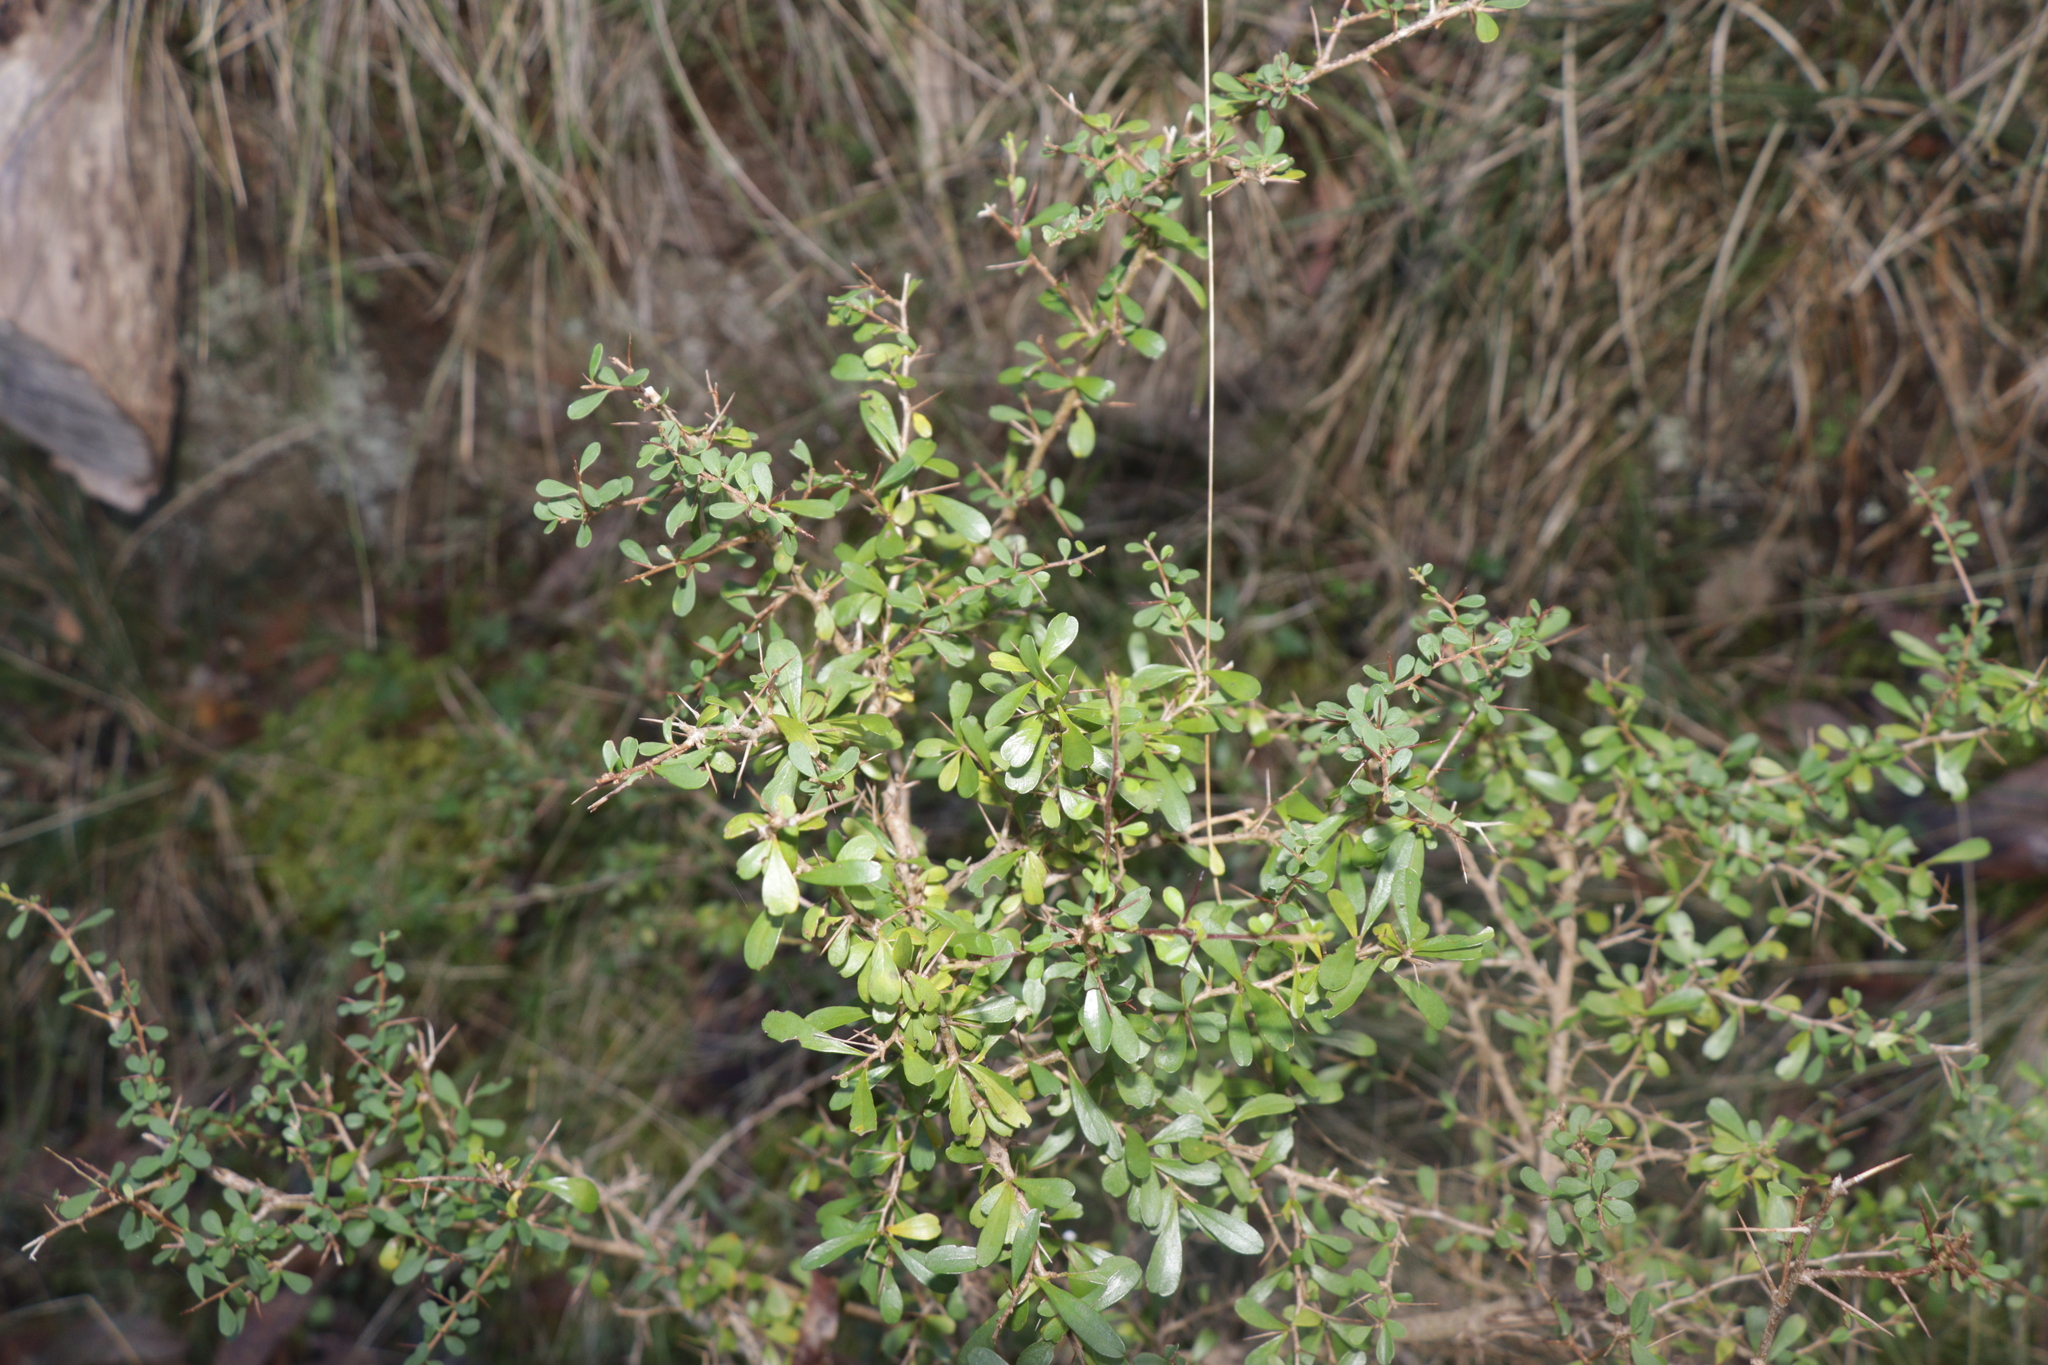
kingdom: Plantae
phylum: Tracheophyta
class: Magnoliopsida
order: Apiales
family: Pittosporaceae
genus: Bursaria
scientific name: Bursaria spinosa
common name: Australian blackthorn
